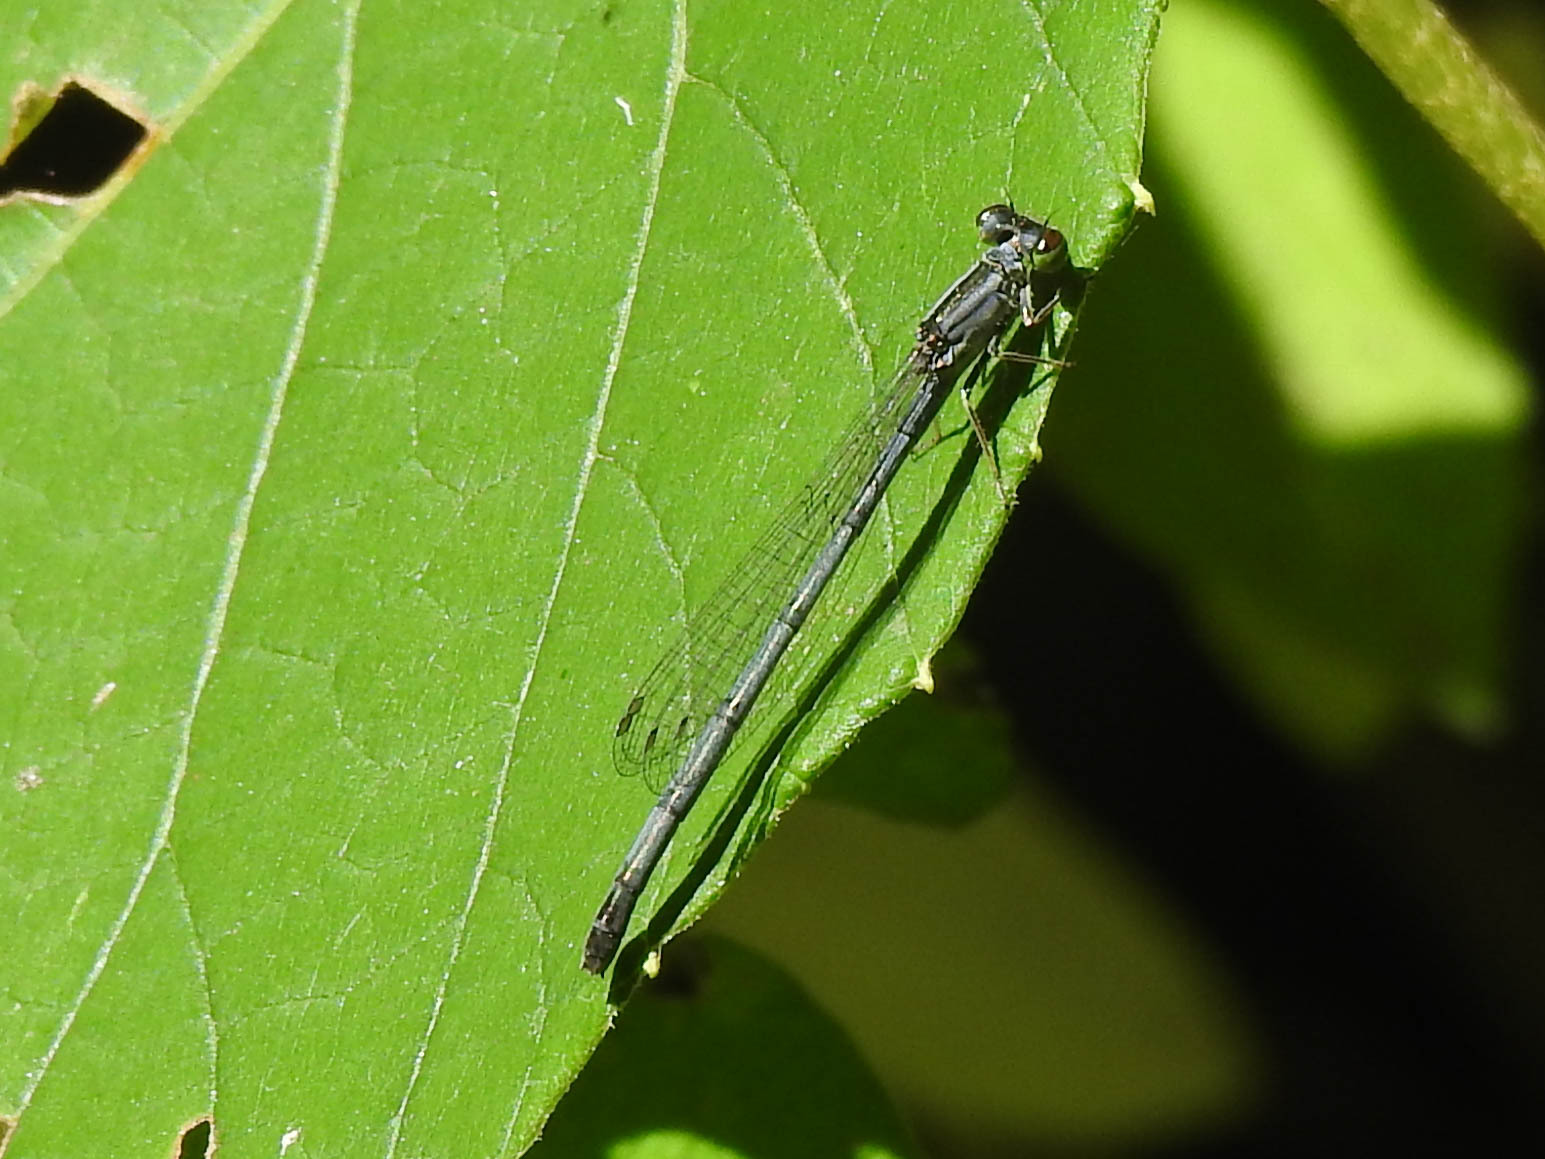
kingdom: Animalia
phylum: Arthropoda
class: Insecta
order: Odonata
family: Coenagrionidae
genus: Ischnura
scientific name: Ischnura verticalis
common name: Eastern forktail
